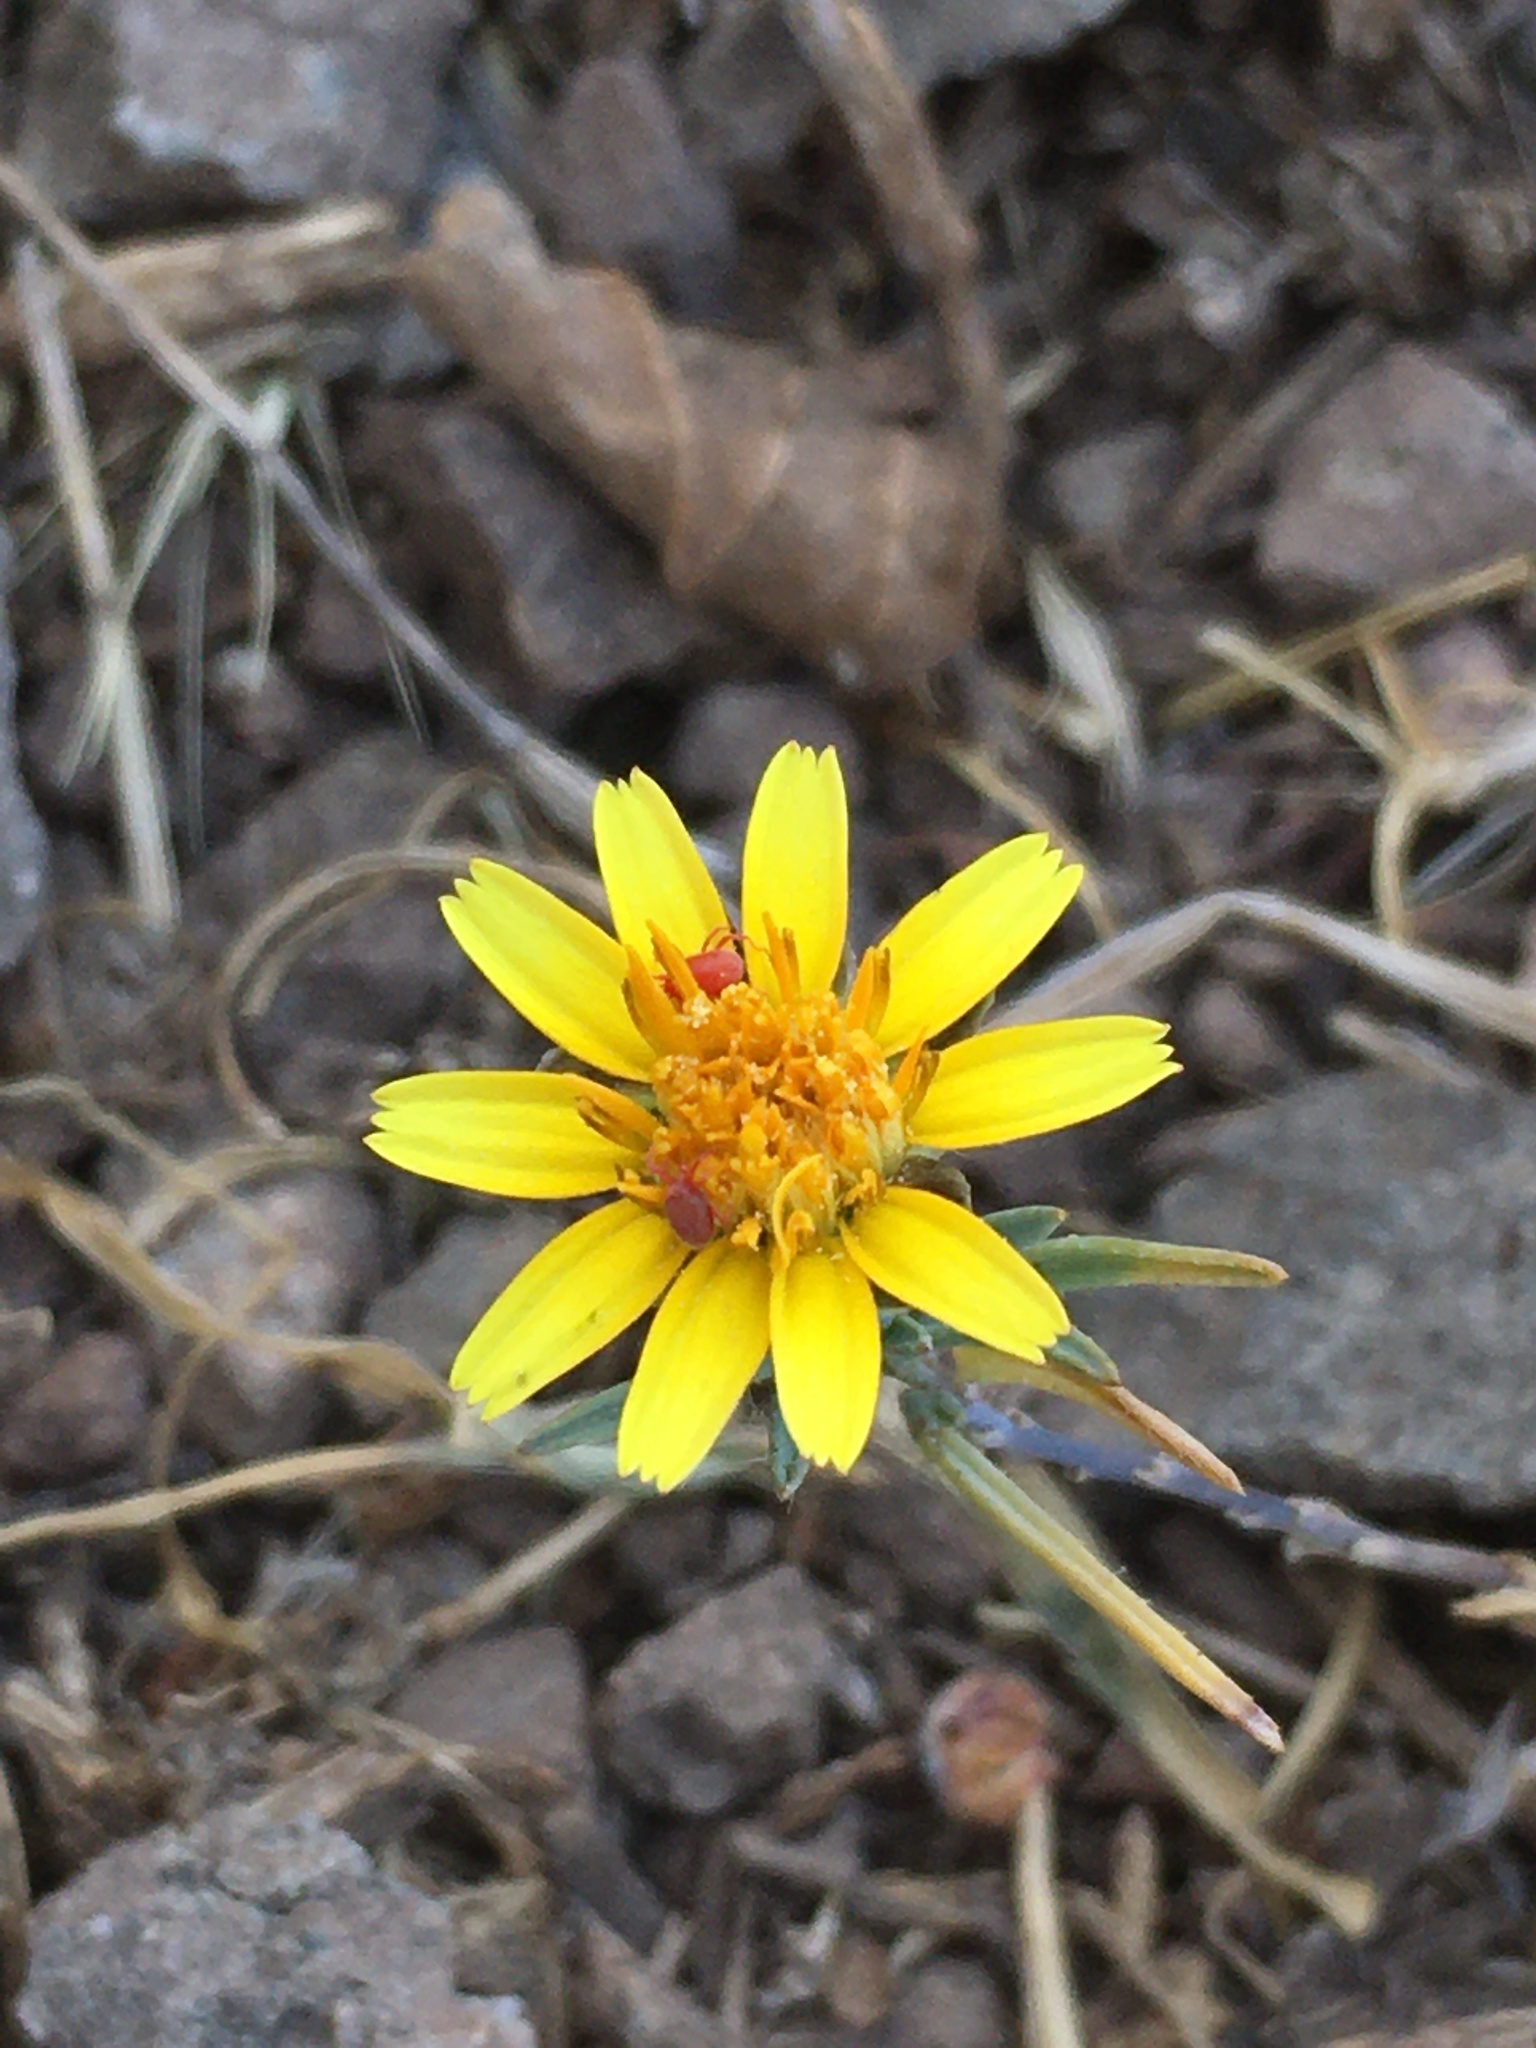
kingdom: Plantae
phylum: Tracheophyta
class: Magnoliopsida
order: Asterales
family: Asteraceae
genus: Chaetanthera
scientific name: Chaetanthera linearis
